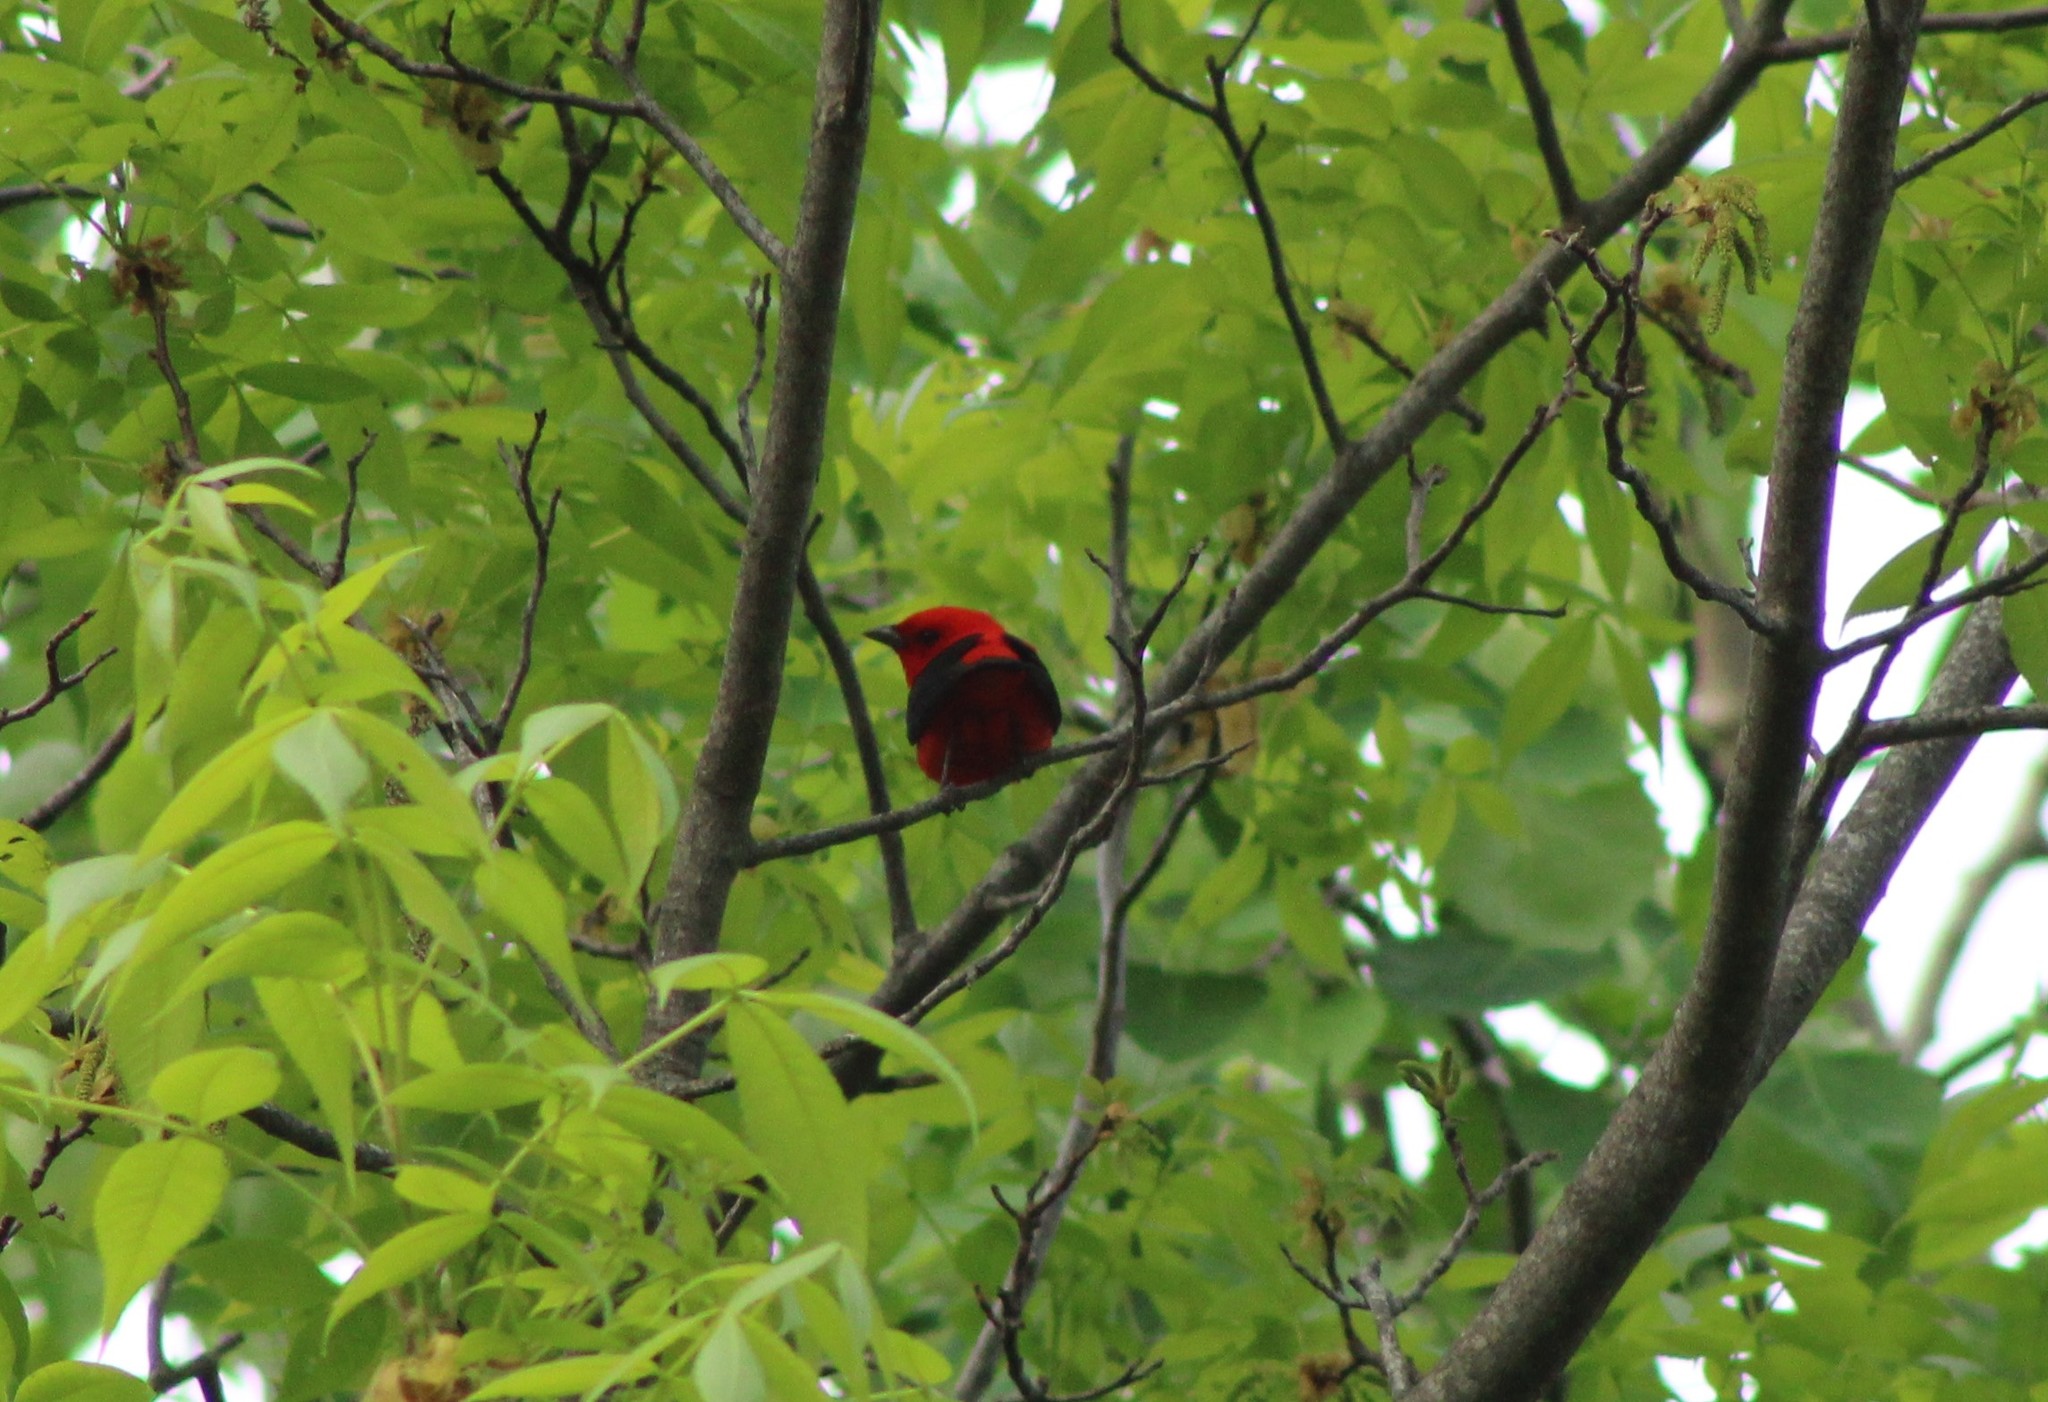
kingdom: Animalia
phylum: Chordata
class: Aves
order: Passeriformes
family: Cardinalidae
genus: Piranga
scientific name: Piranga olivacea
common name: Scarlet tanager
